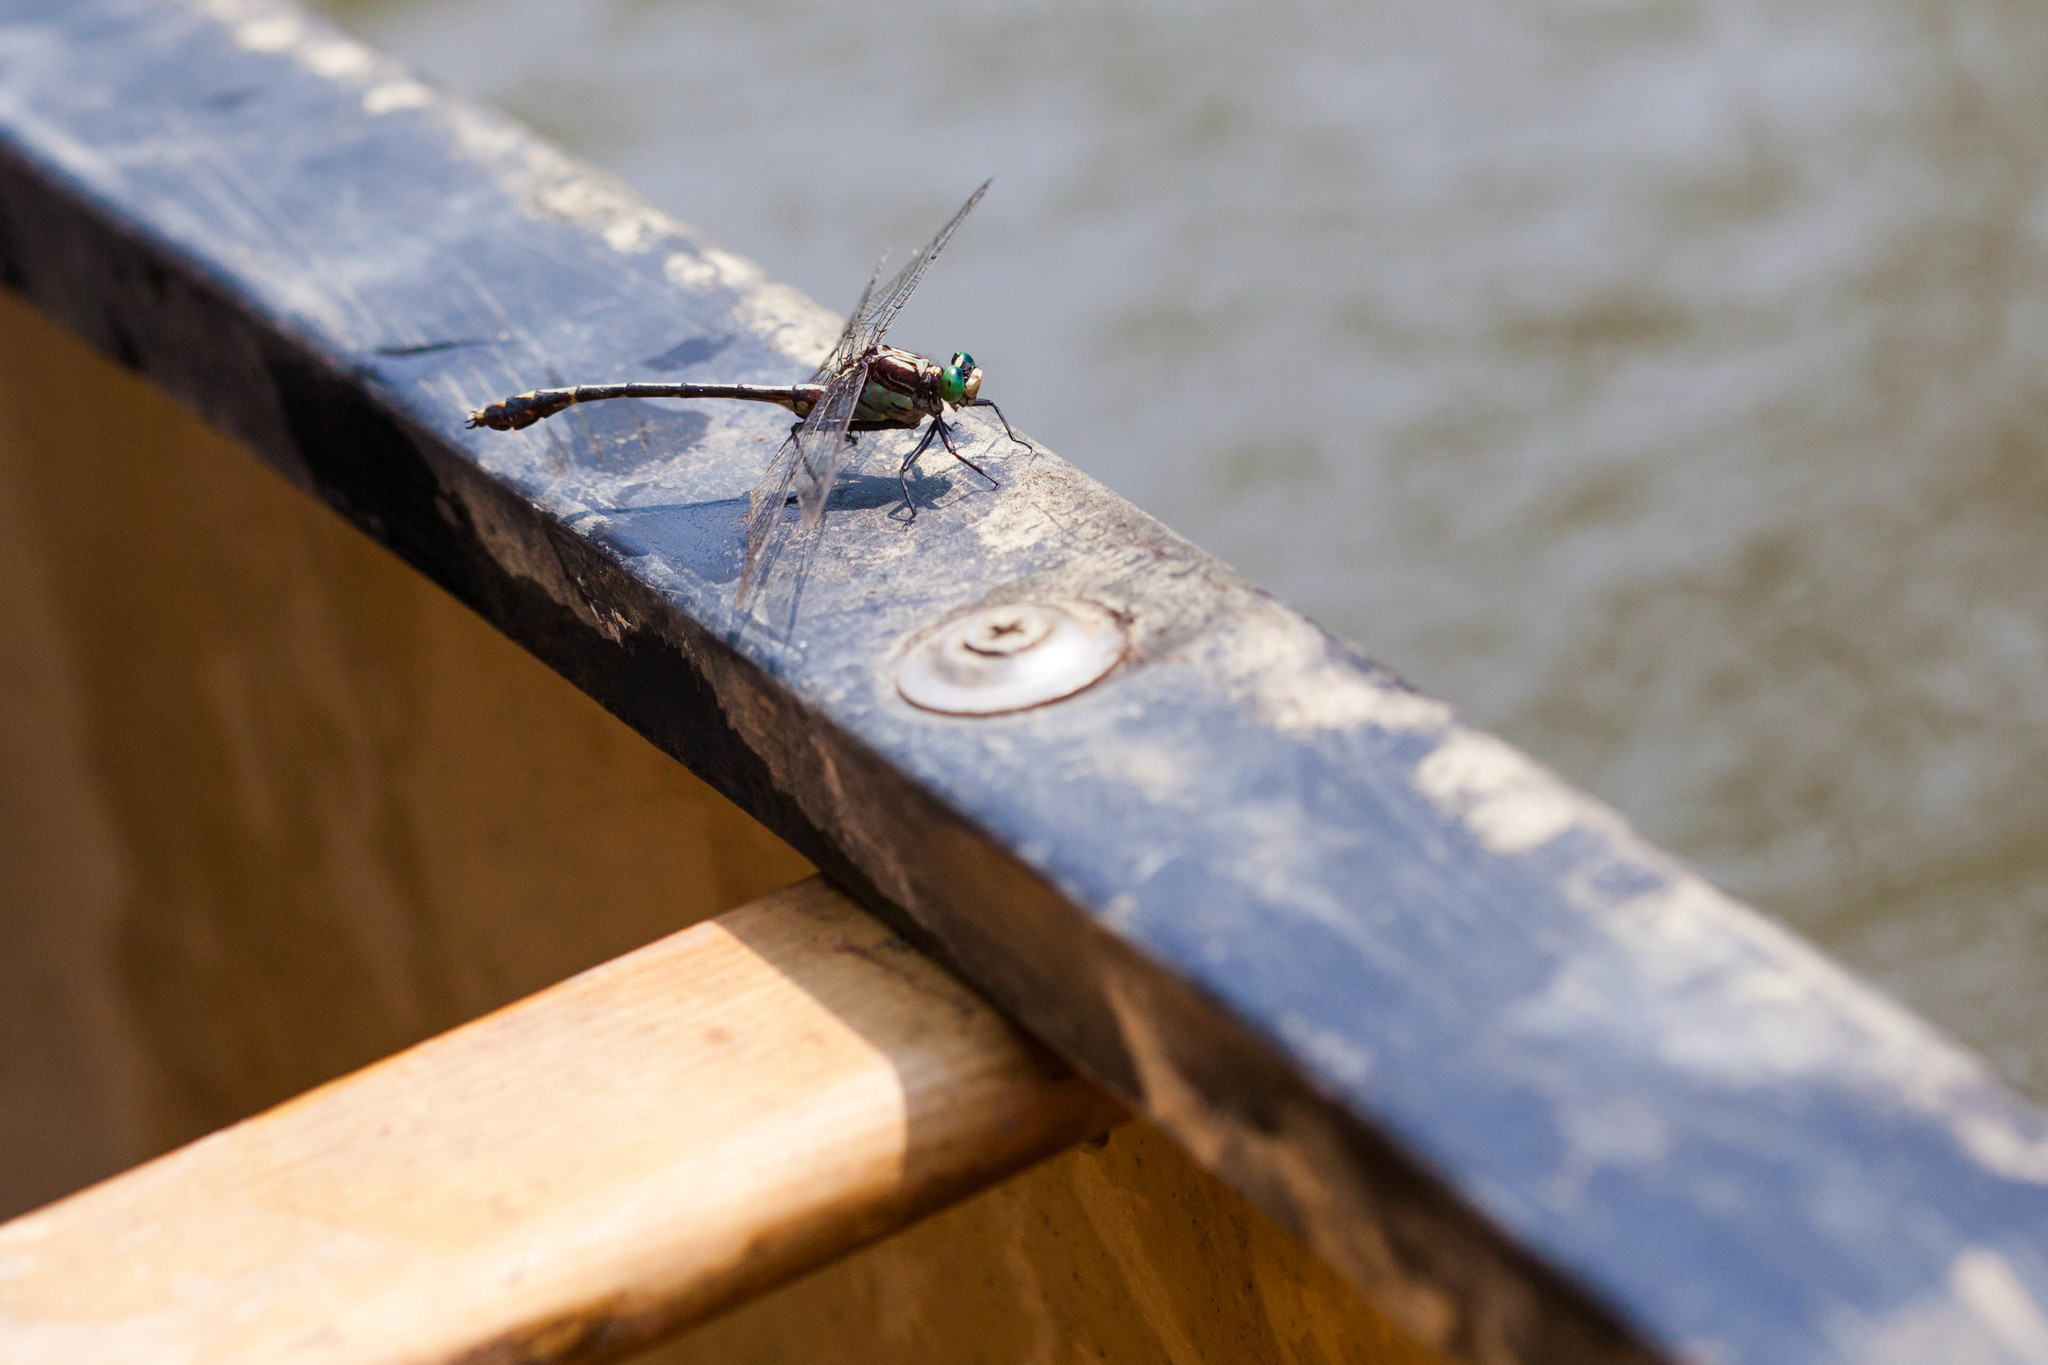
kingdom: Animalia
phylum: Arthropoda
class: Insecta
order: Odonata
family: Gomphidae
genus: Dromogomphus
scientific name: Dromogomphus spinosus
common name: Black-shouldered spinyleg
